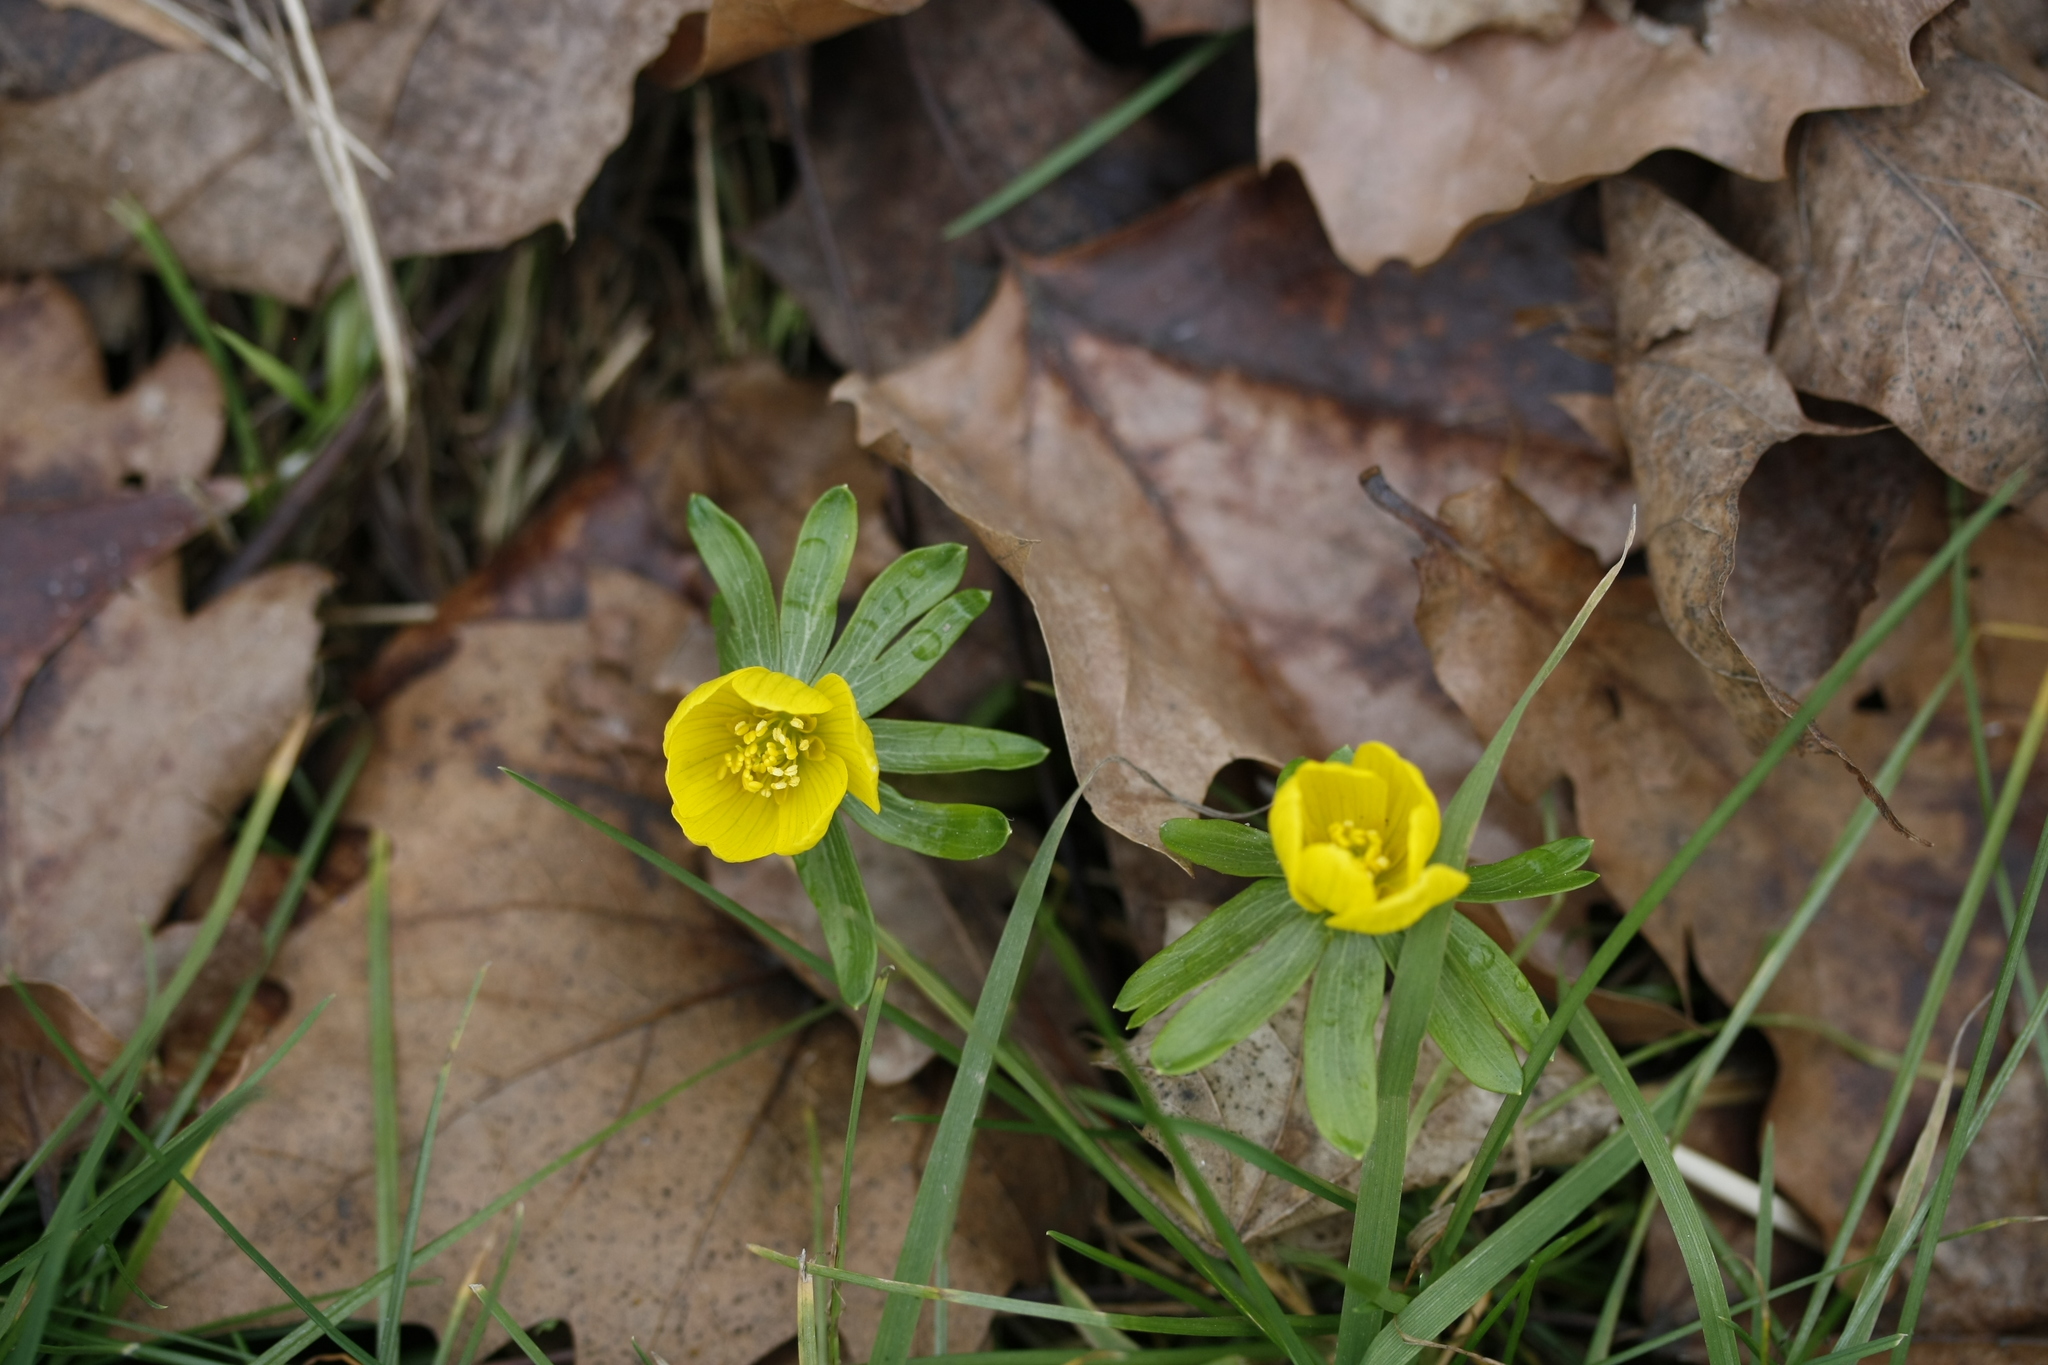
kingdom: Plantae
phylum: Tracheophyta
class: Magnoliopsida
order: Ranunculales
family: Ranunculaceae
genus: Eranthis
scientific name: Eranthis hyemalis
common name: Winter aconite
